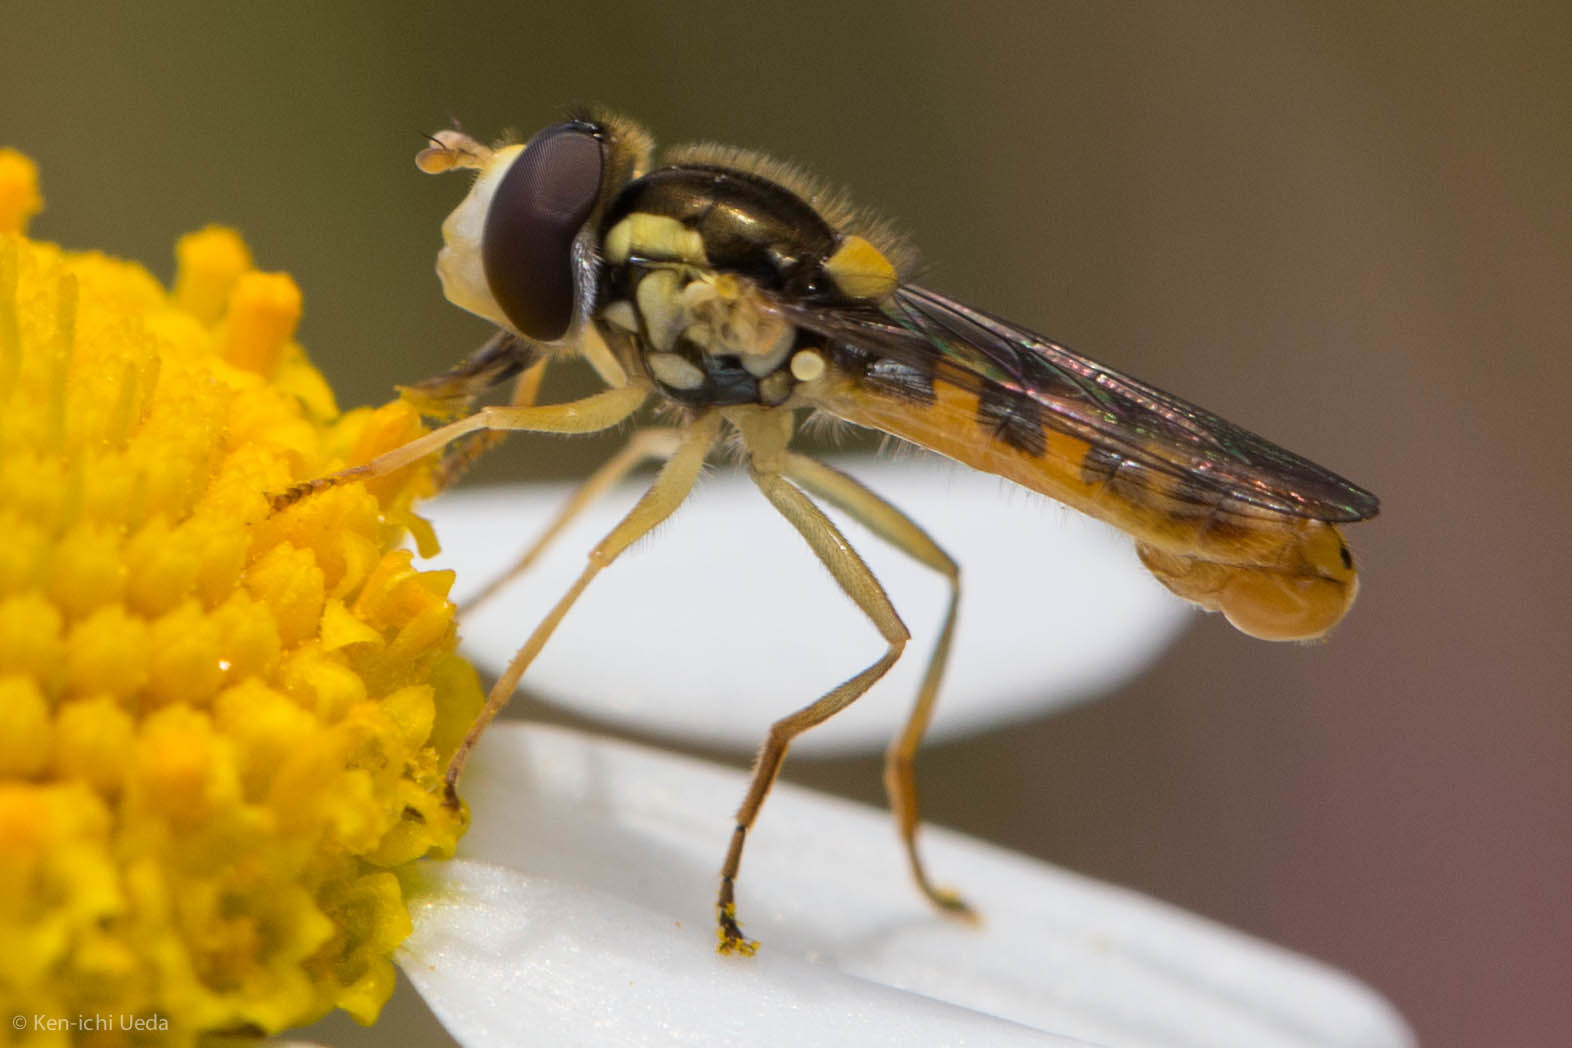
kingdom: Animalia
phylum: Arthropoda
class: Insecta
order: Diptera
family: Syrphidae
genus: Sphaerophoria
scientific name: Sphaerophoria
